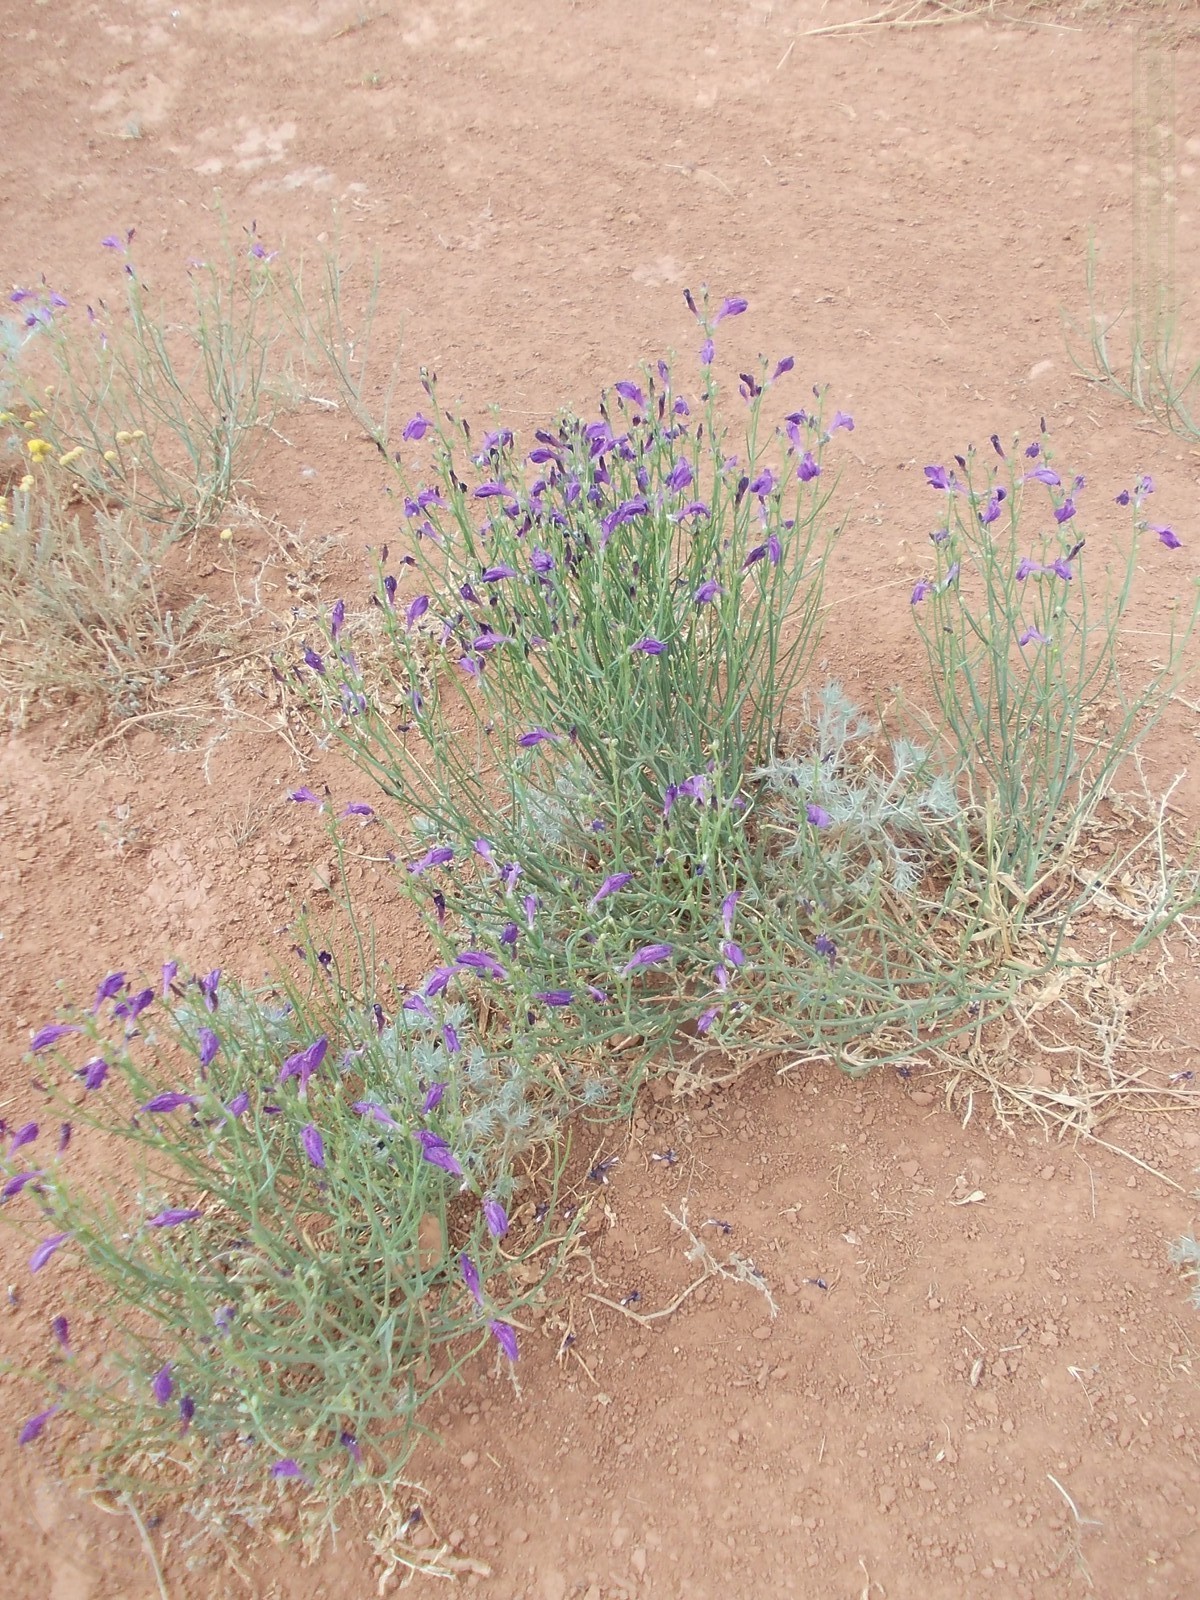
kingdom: Plantae
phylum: Tracheophyta
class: Magnoliopsida
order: Lamiales
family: Mazaceae
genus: Dodartia
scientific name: Dodartia orientalis
